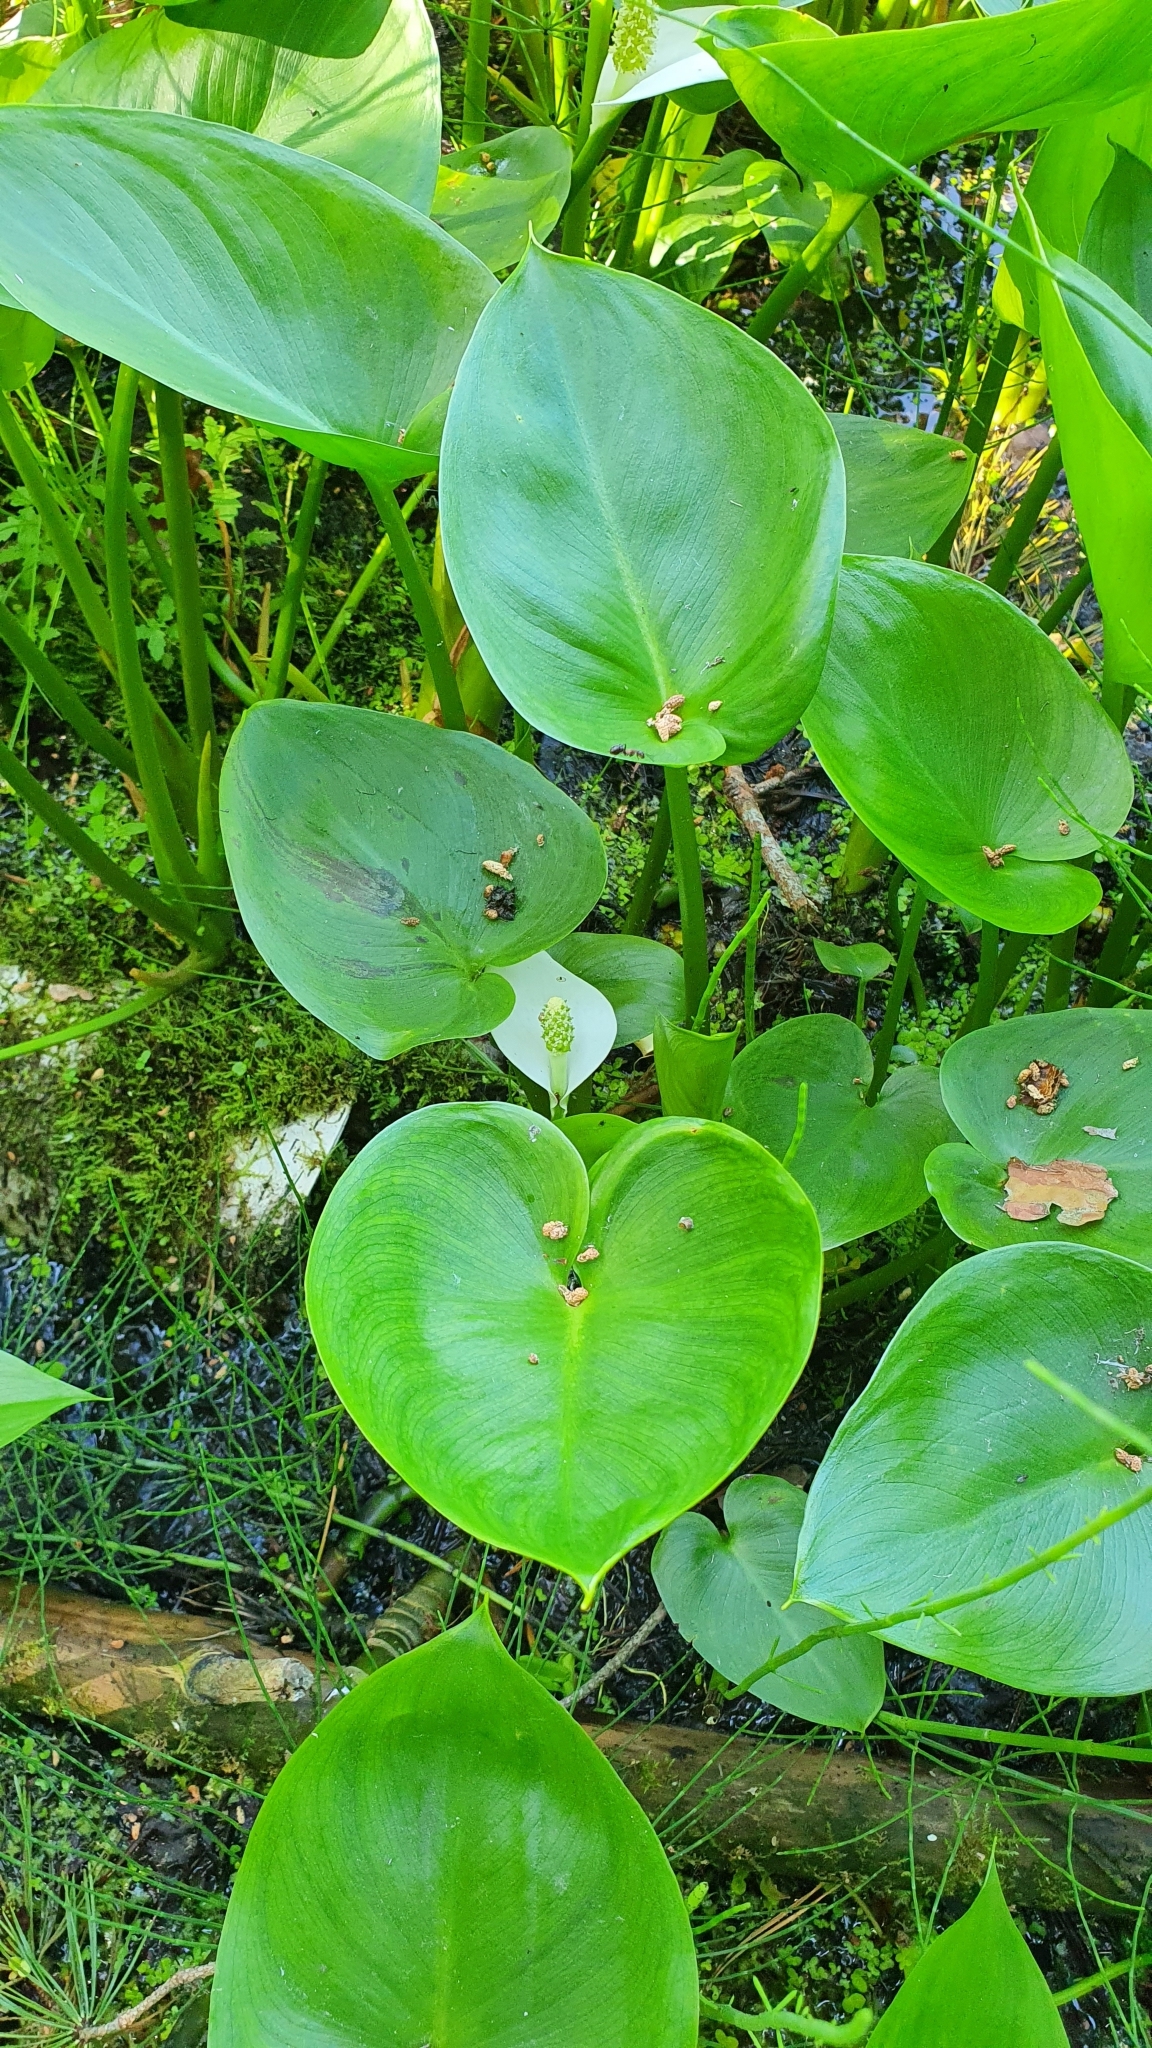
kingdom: Plantae
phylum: Tracheophyta
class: Liliopsida
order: Alismatales
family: Araceae
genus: Calla
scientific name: Calla palustris
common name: Bog arum
